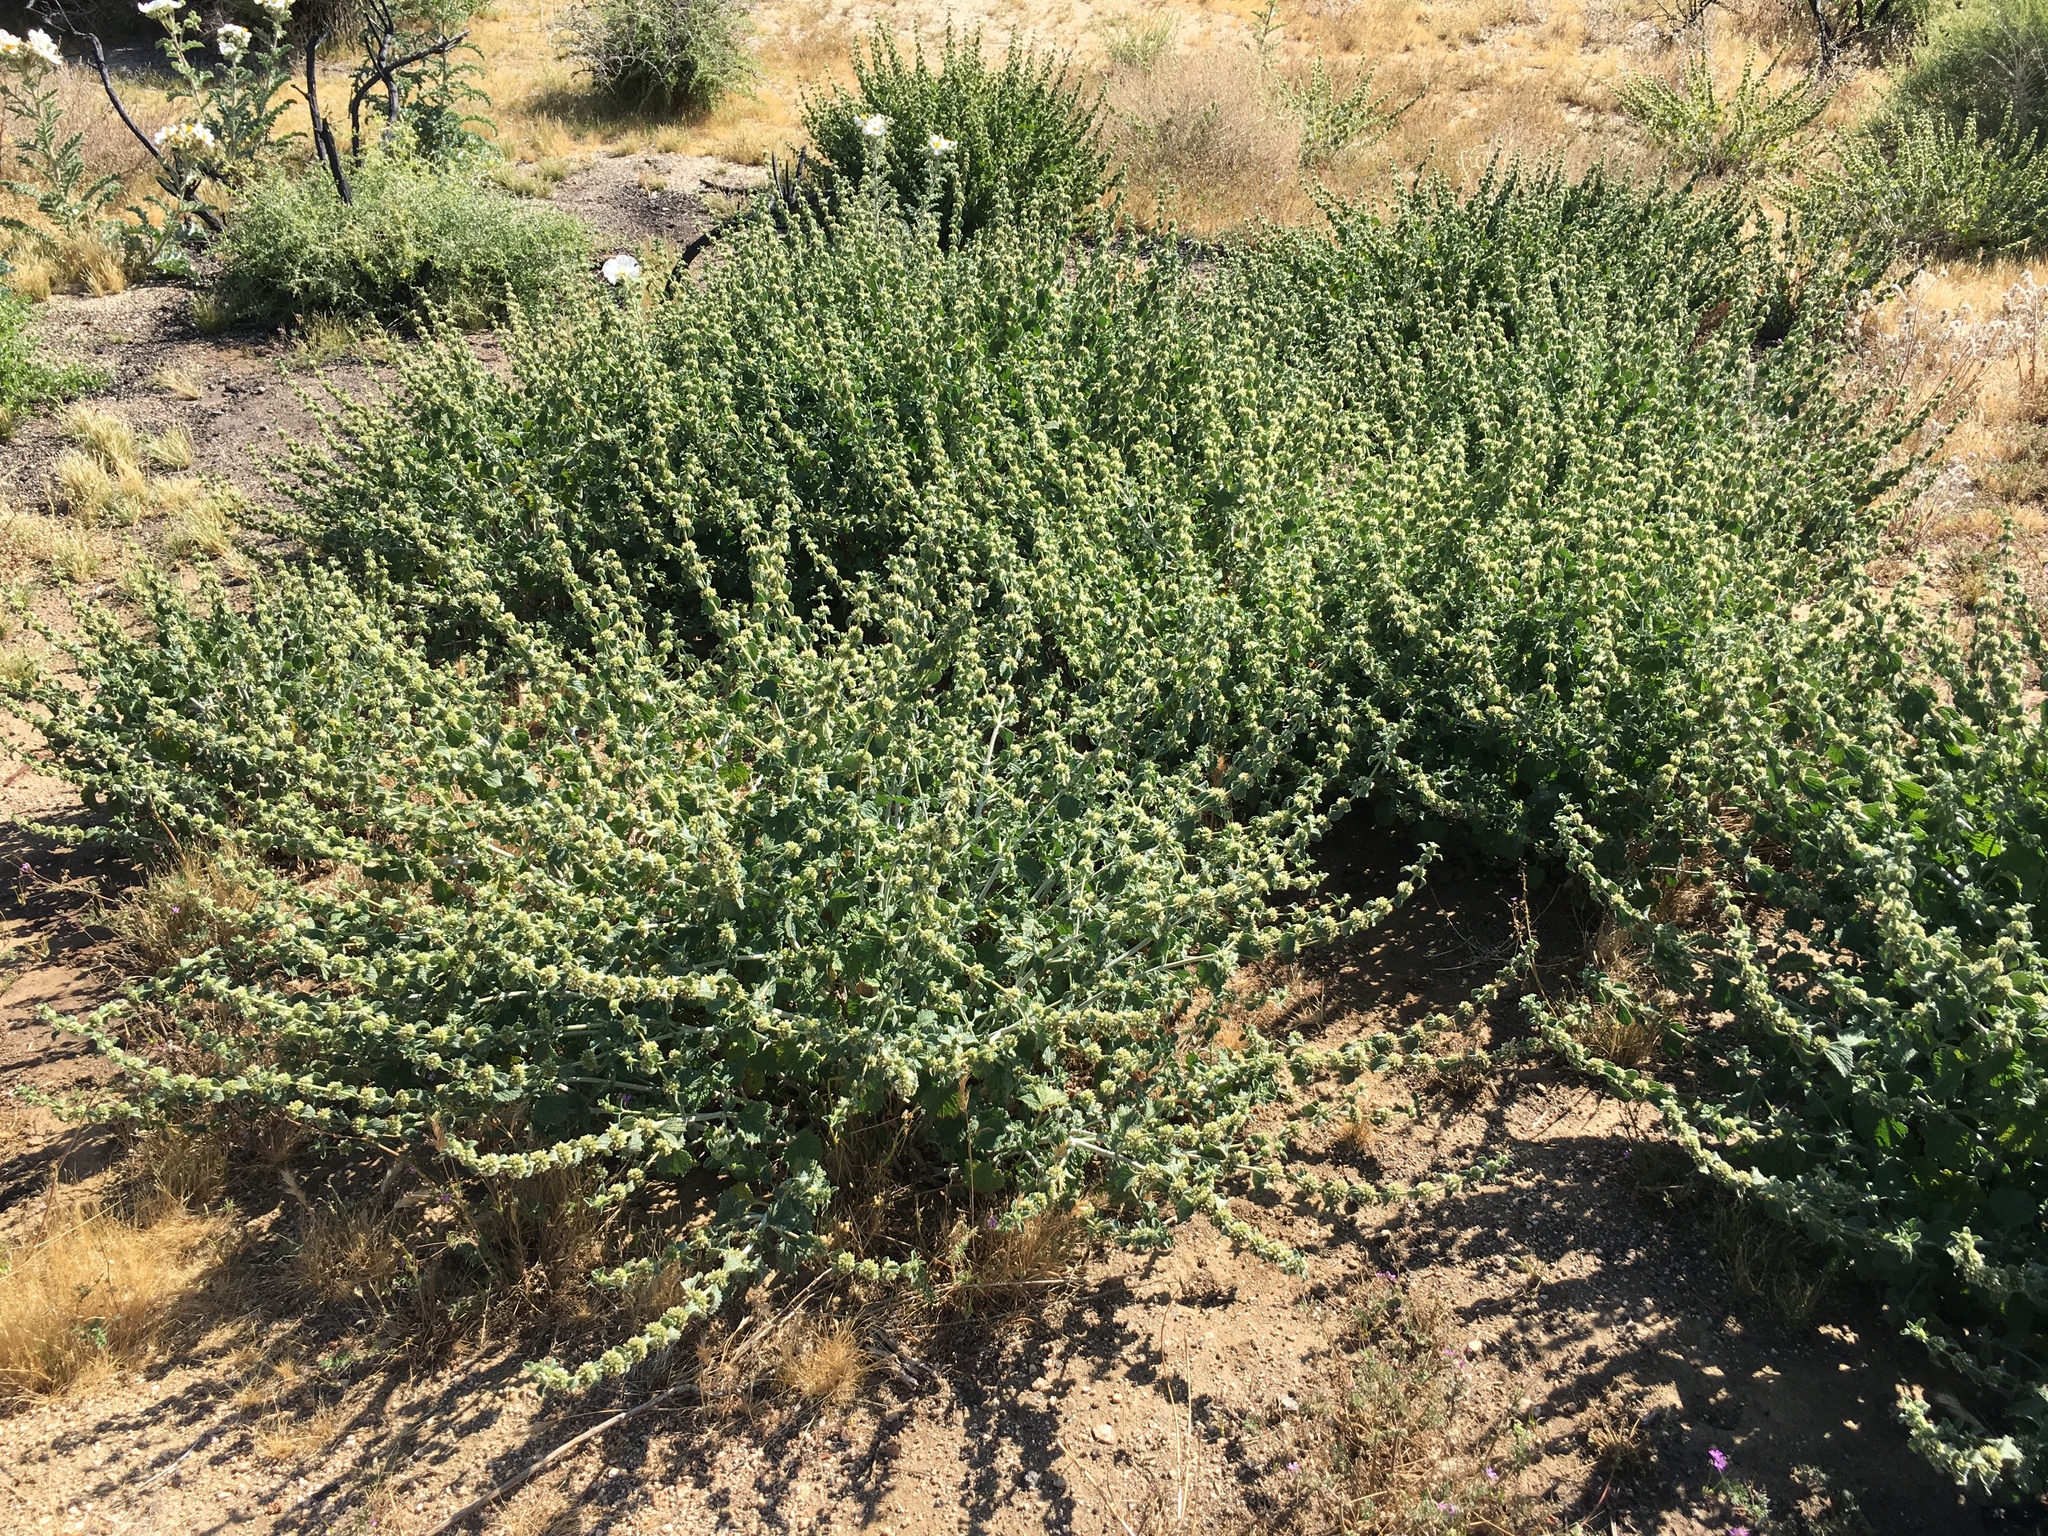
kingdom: Plantae
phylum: Tracheophyta
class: Magnoliopsida
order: Lamiales
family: Lamiaceae
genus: Marrubium
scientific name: Marrubium vulgare
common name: Horehound
